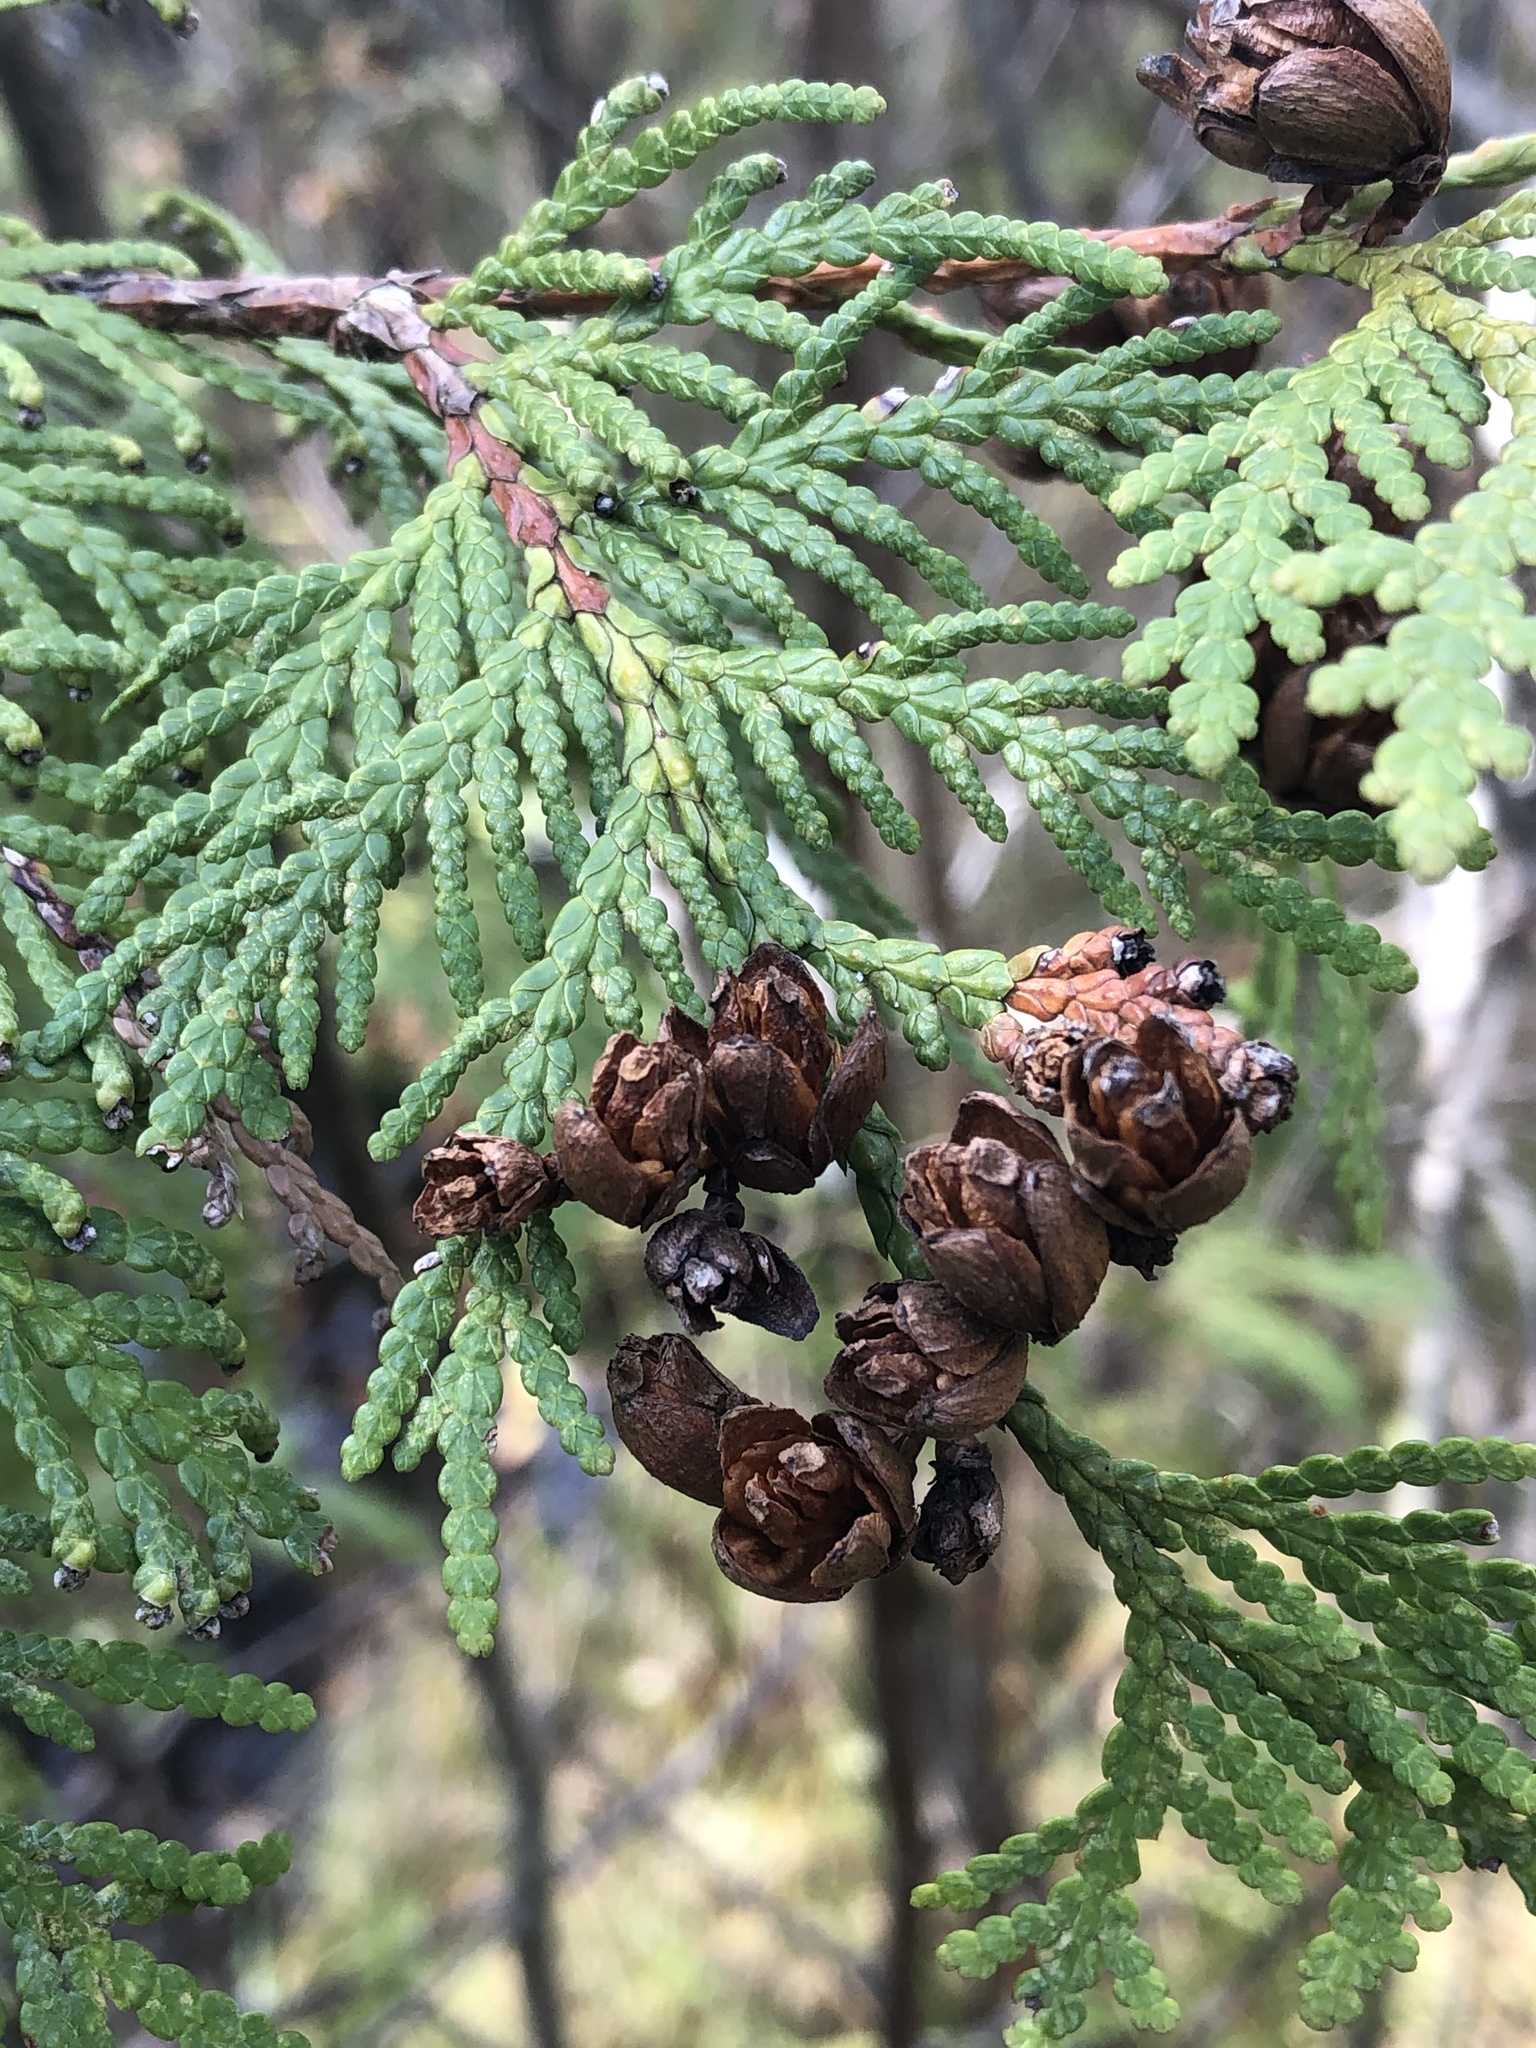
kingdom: Plantae
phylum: Tracheophyta
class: Pinopsida
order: Pinales
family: Cupressaceae
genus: Thuja
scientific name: Thuja occidentalis
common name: Northern white-cedar
